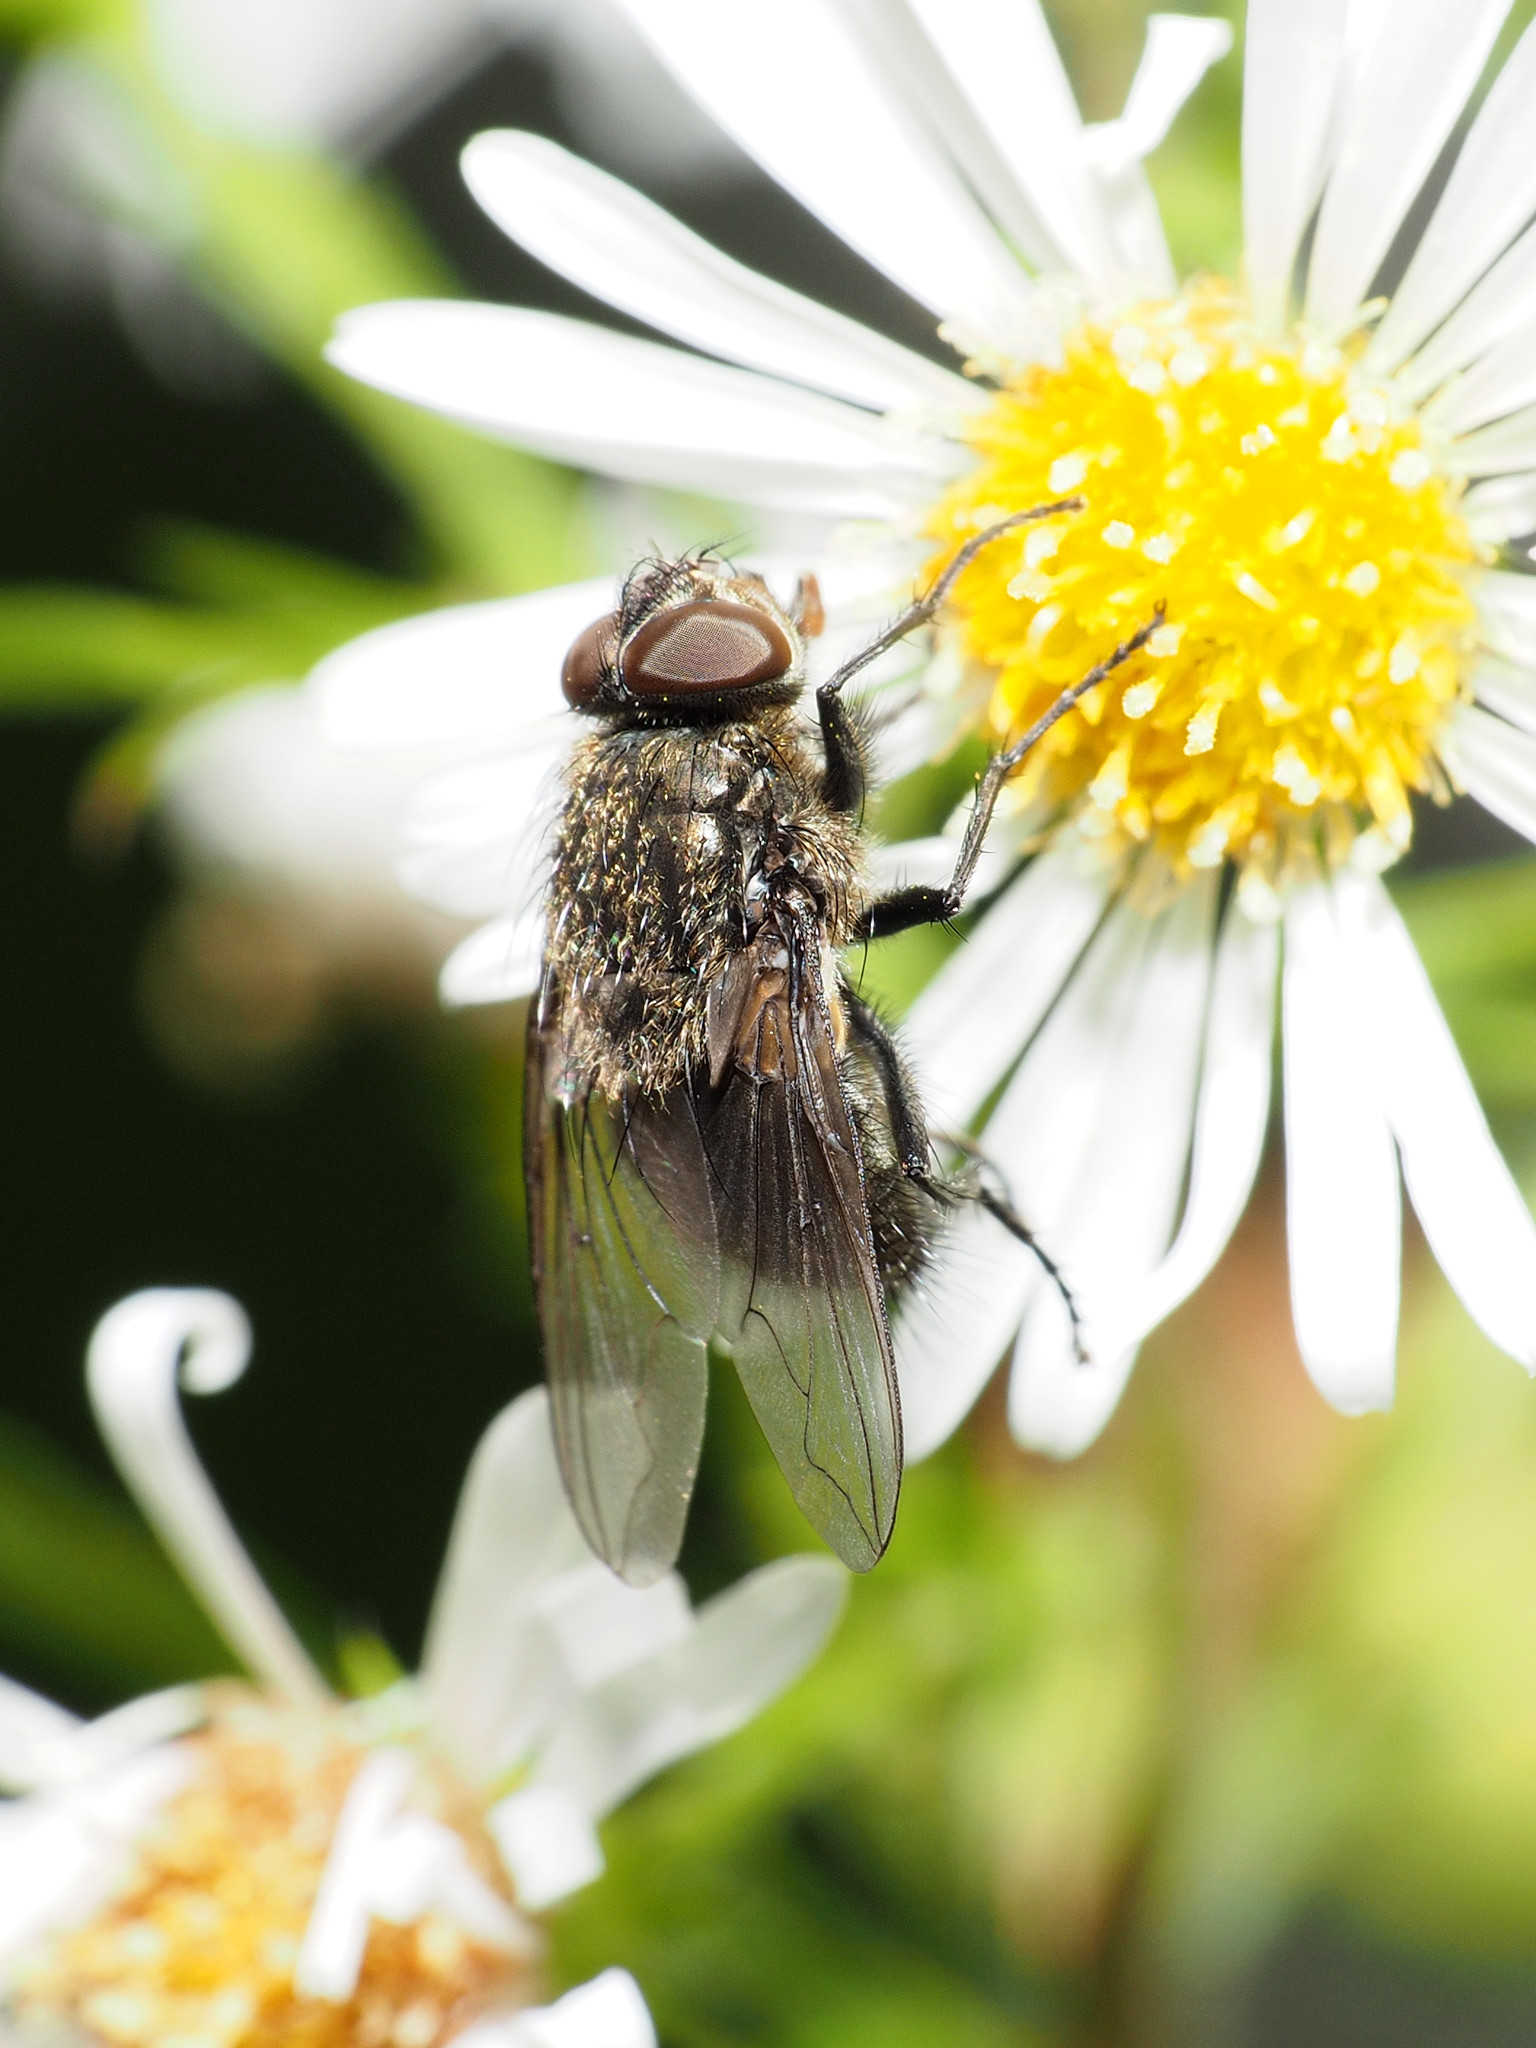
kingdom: Animalia
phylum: Arthropoda
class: Insecta
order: Diptera
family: Polleniidae
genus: Pollenia
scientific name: Pollenia
